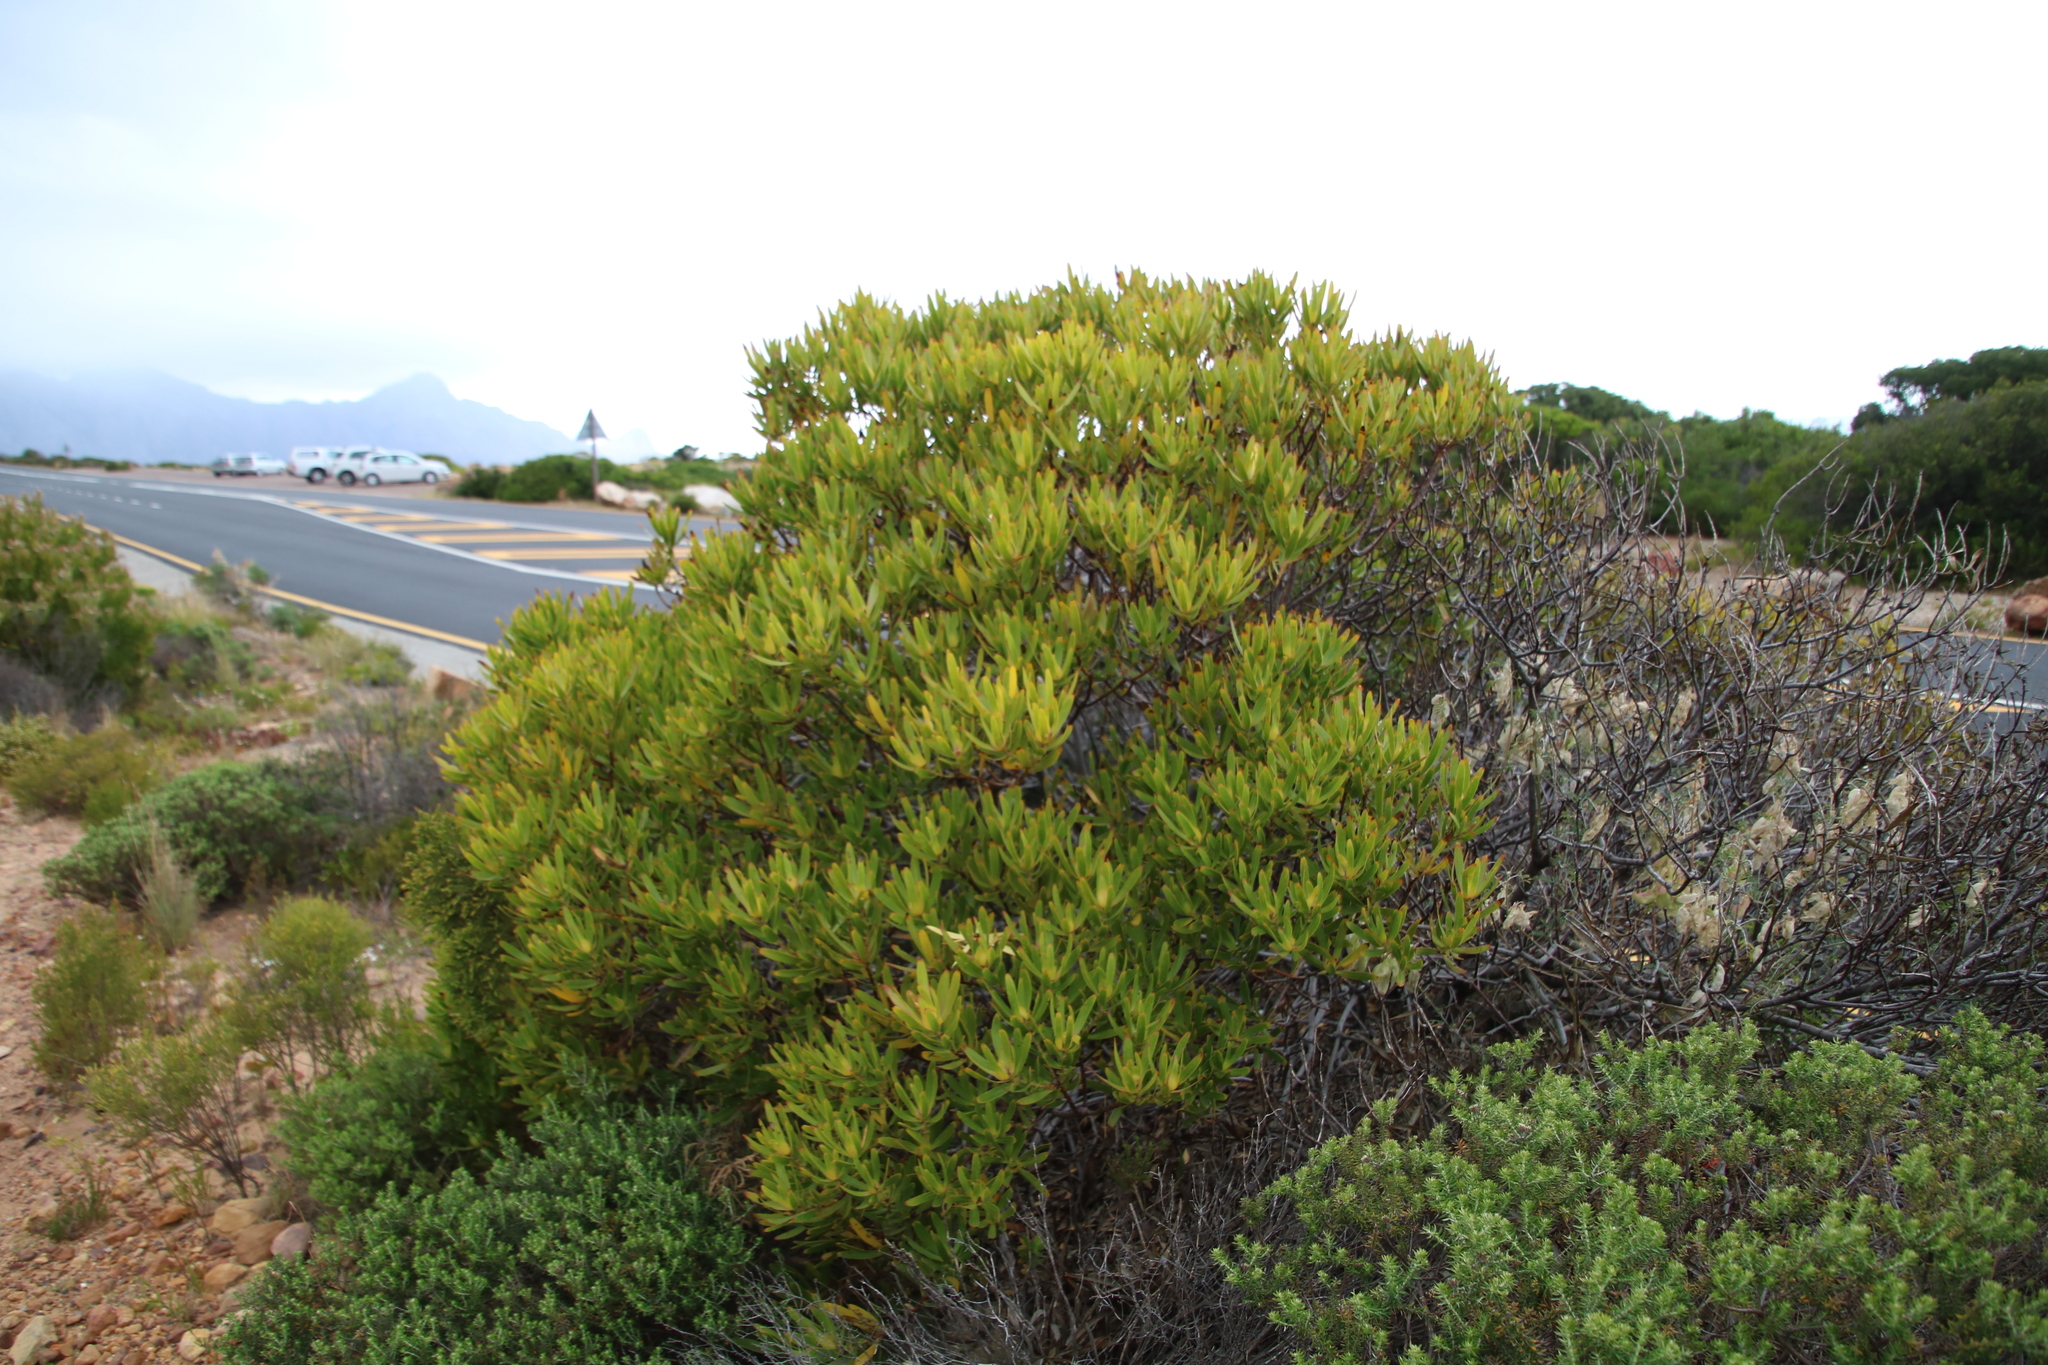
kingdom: Plantae
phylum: Tracheophyta
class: Magnoliopsida
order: Proteales
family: Proteaceae
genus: Leucadendron
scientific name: Leucadendron laureolum
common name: Golden sunshinebush
